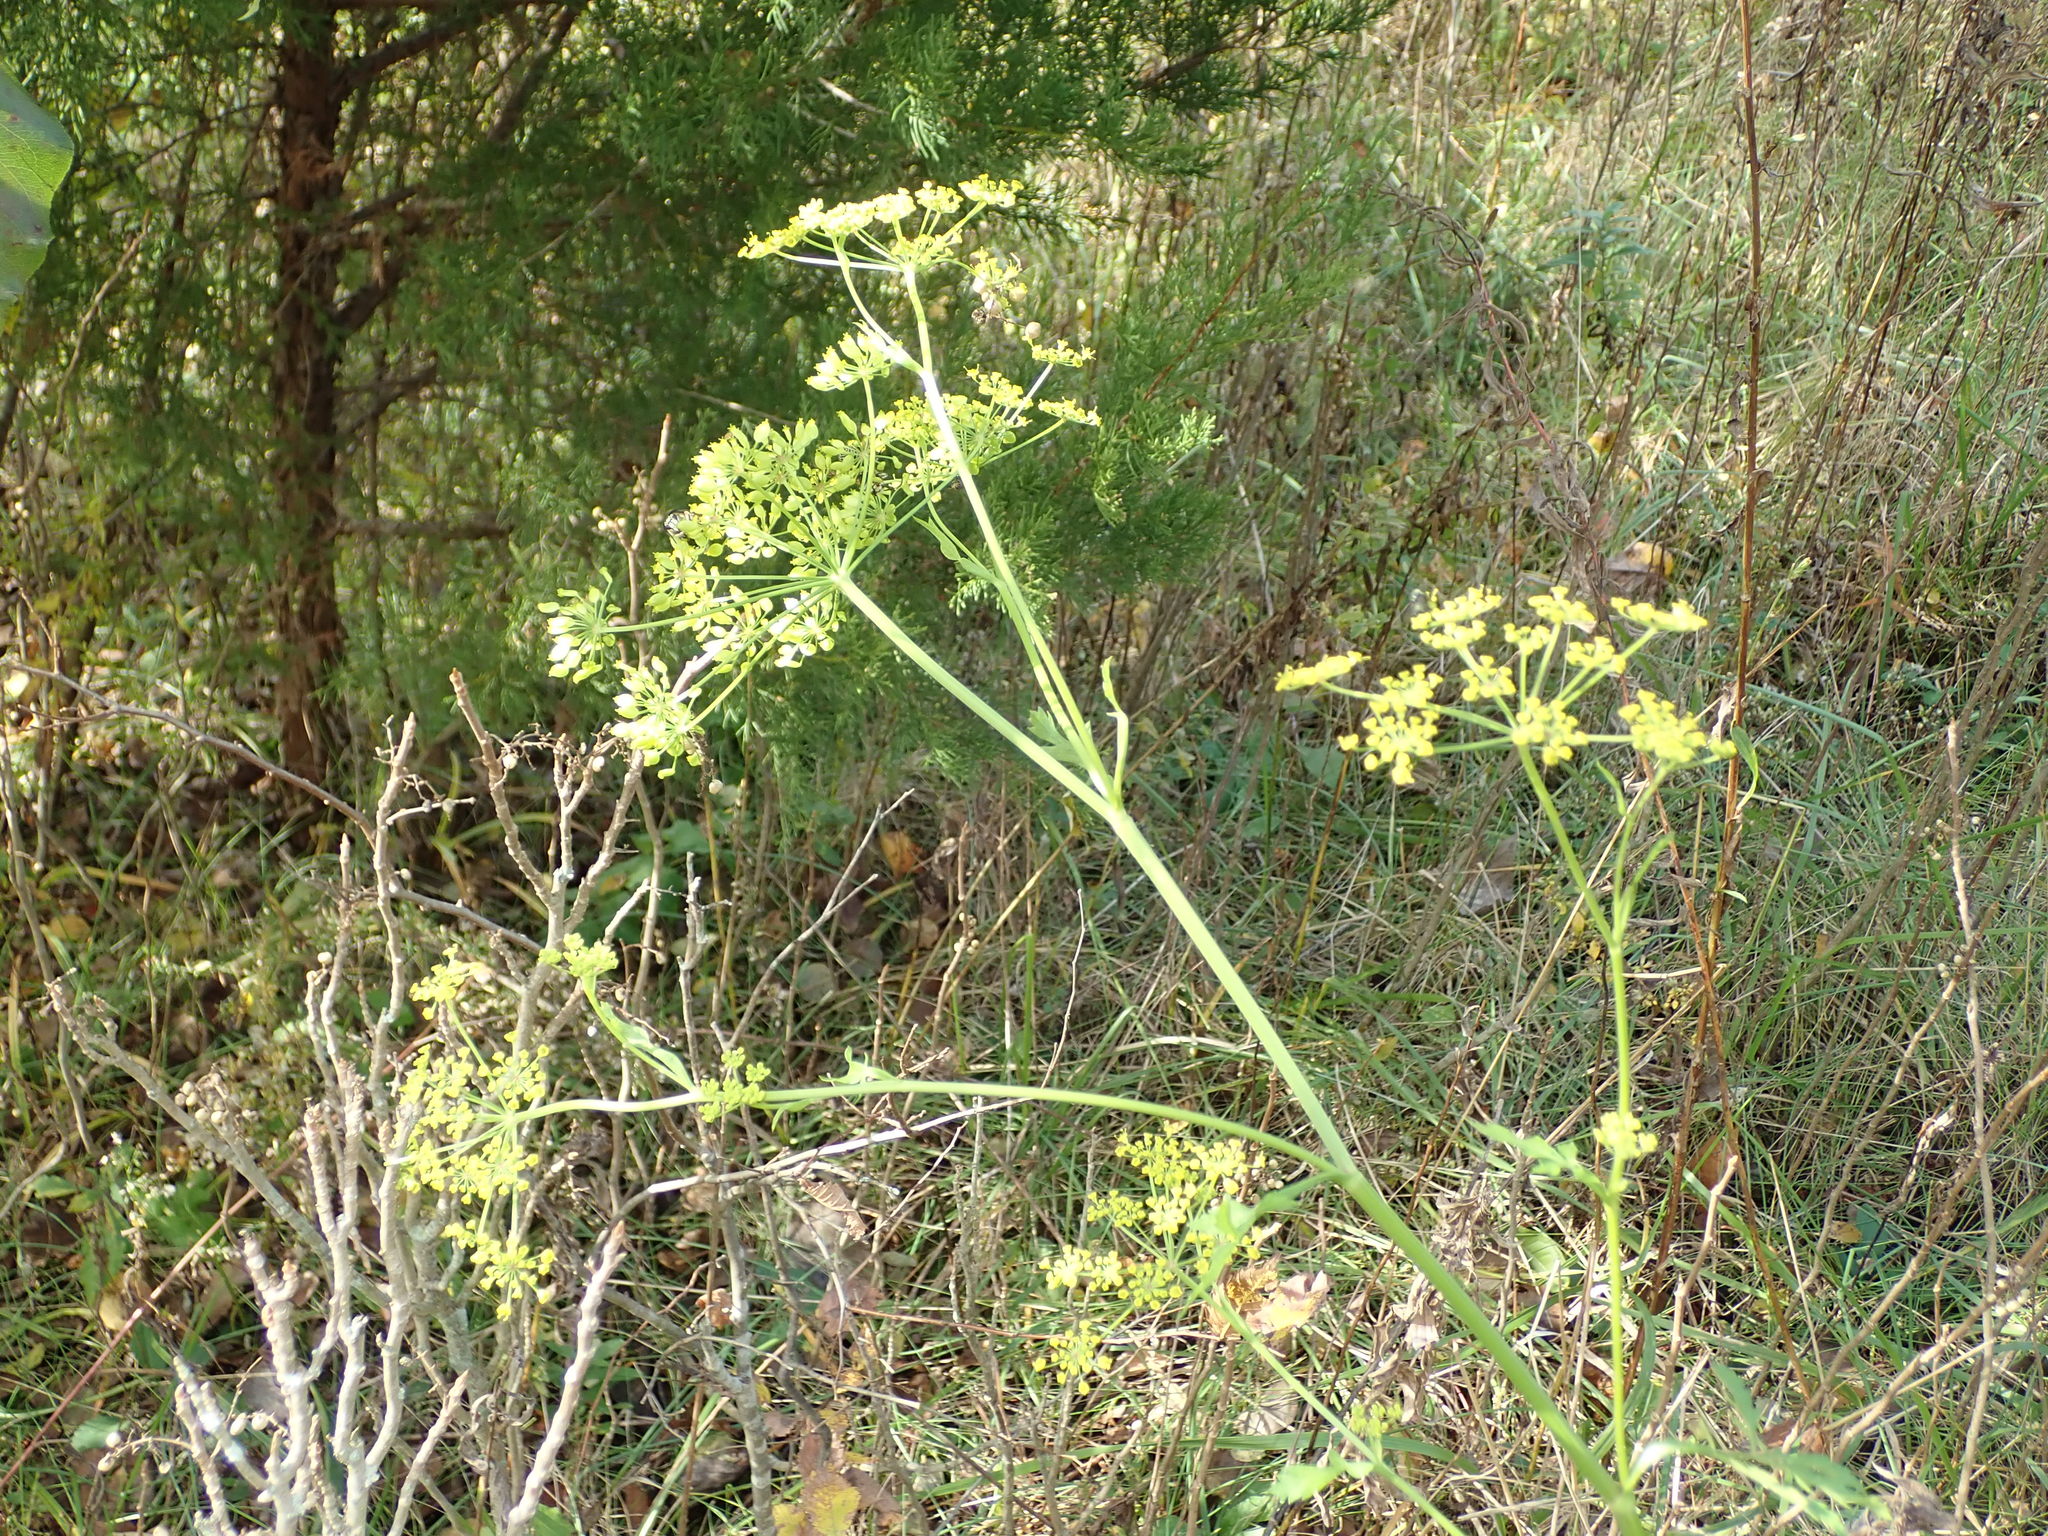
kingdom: Plantae
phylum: Tracheophyta
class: Magnoliopsida
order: Apiales
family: Apiaceae
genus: Pastinaca
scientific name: Pastinaca sativa
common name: Wild parsnip
